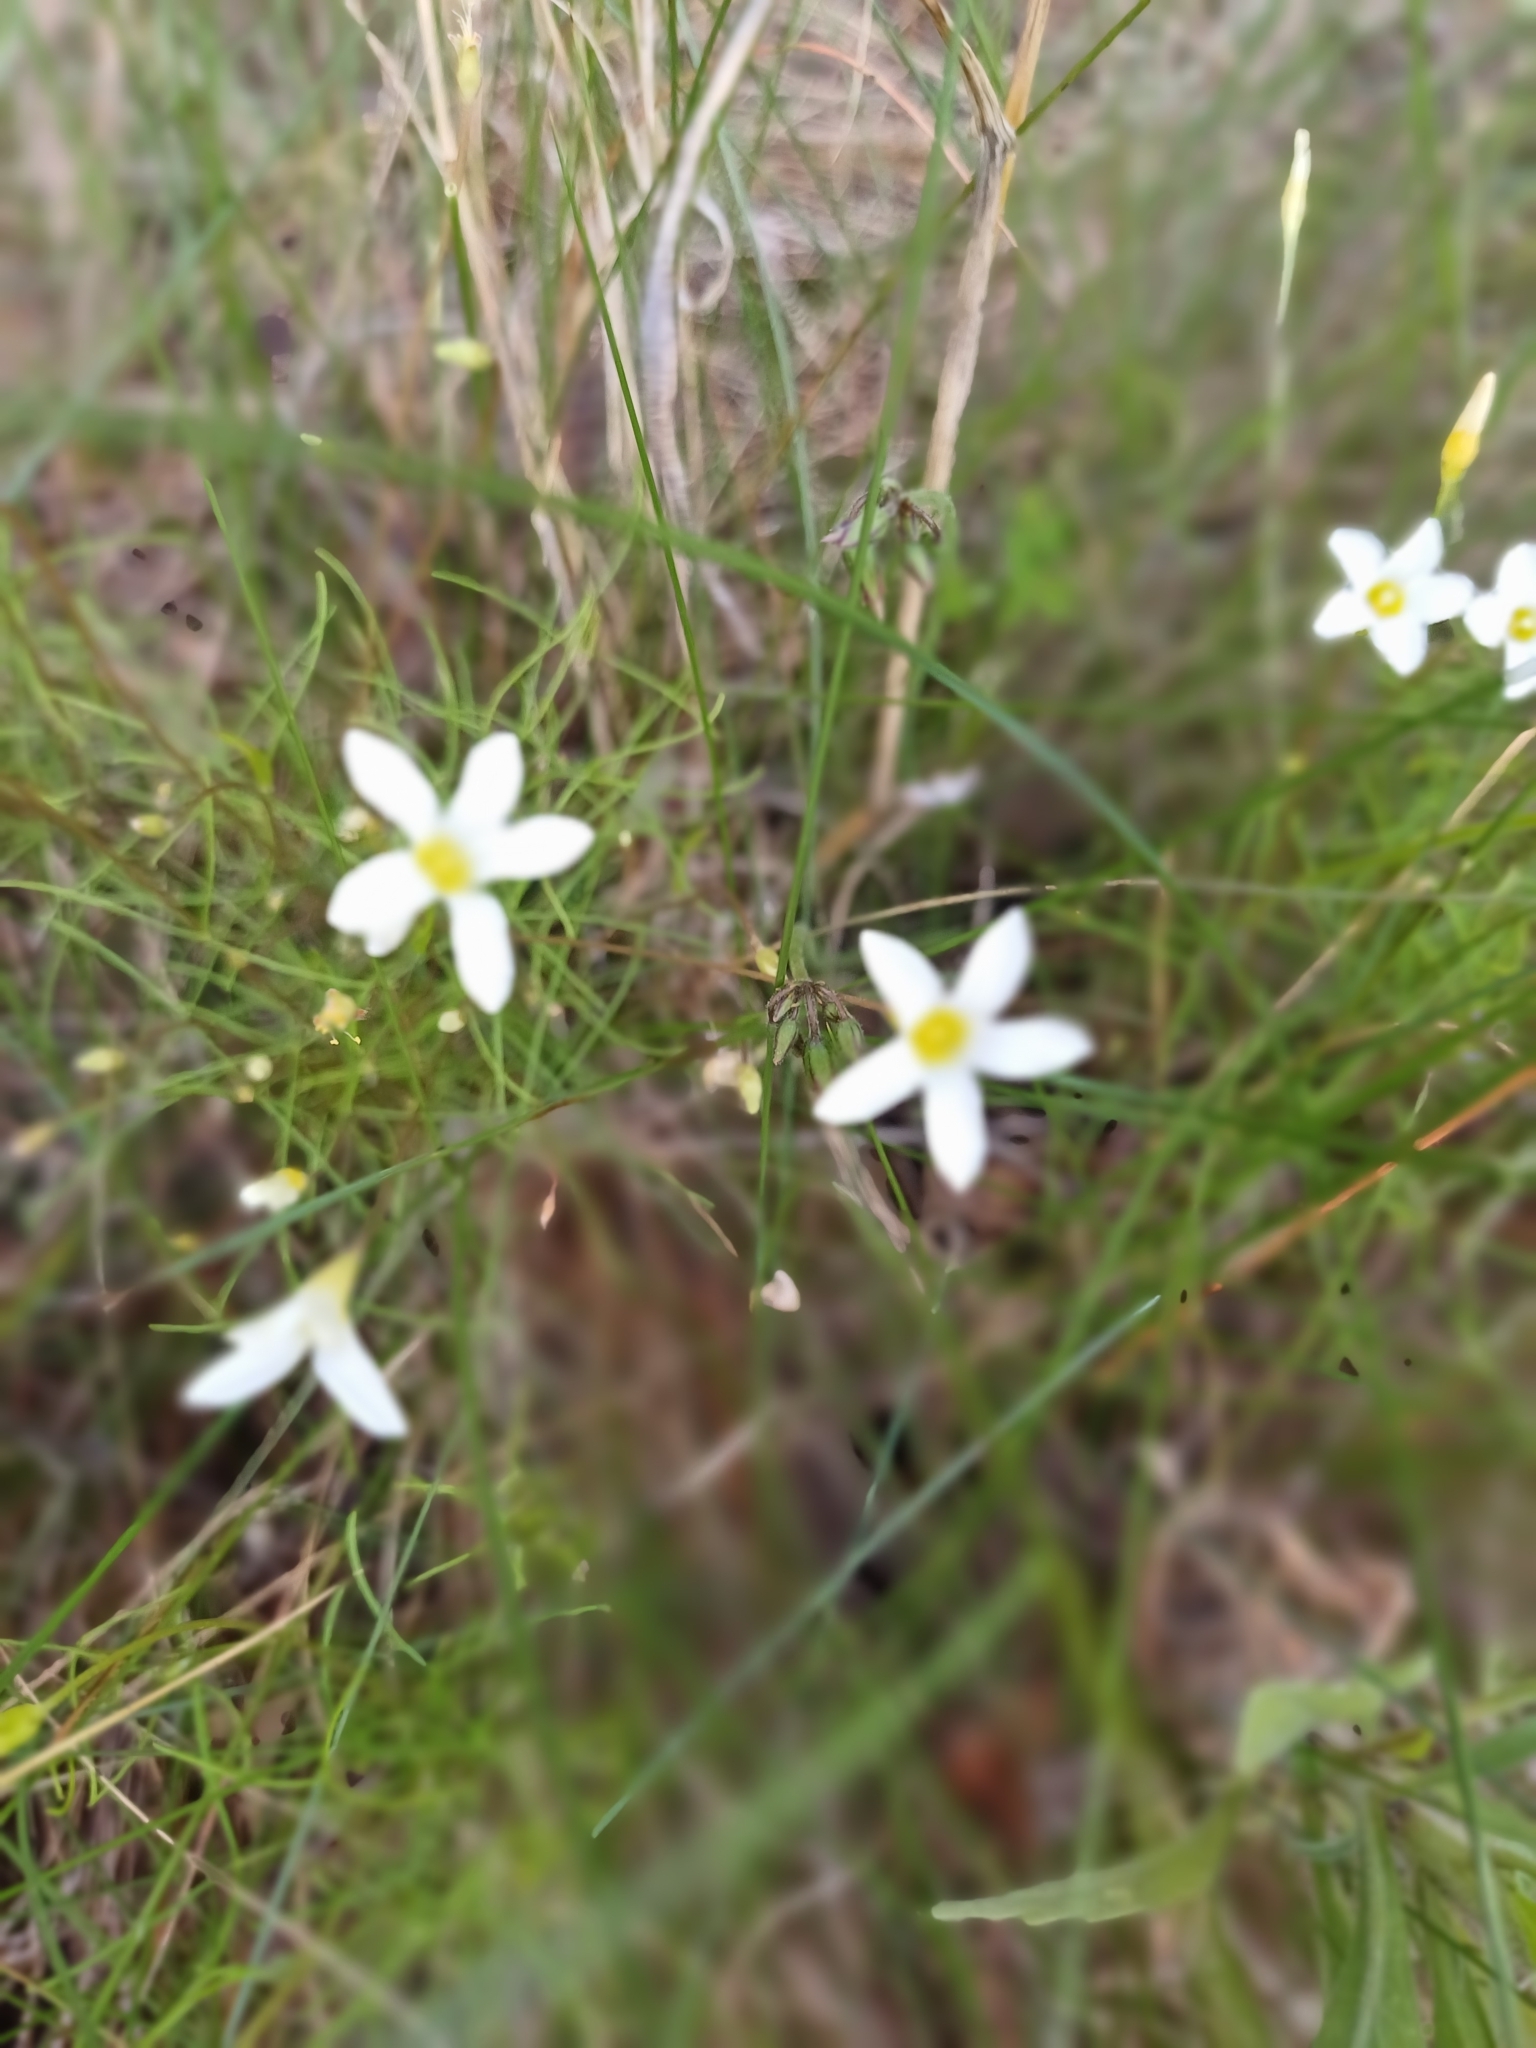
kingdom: Plantae
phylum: Tracheophyta
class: Magnoliopsida
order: Oxalidales
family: Oxalidaceae
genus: Oxalis
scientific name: Oxalis polyphylla
